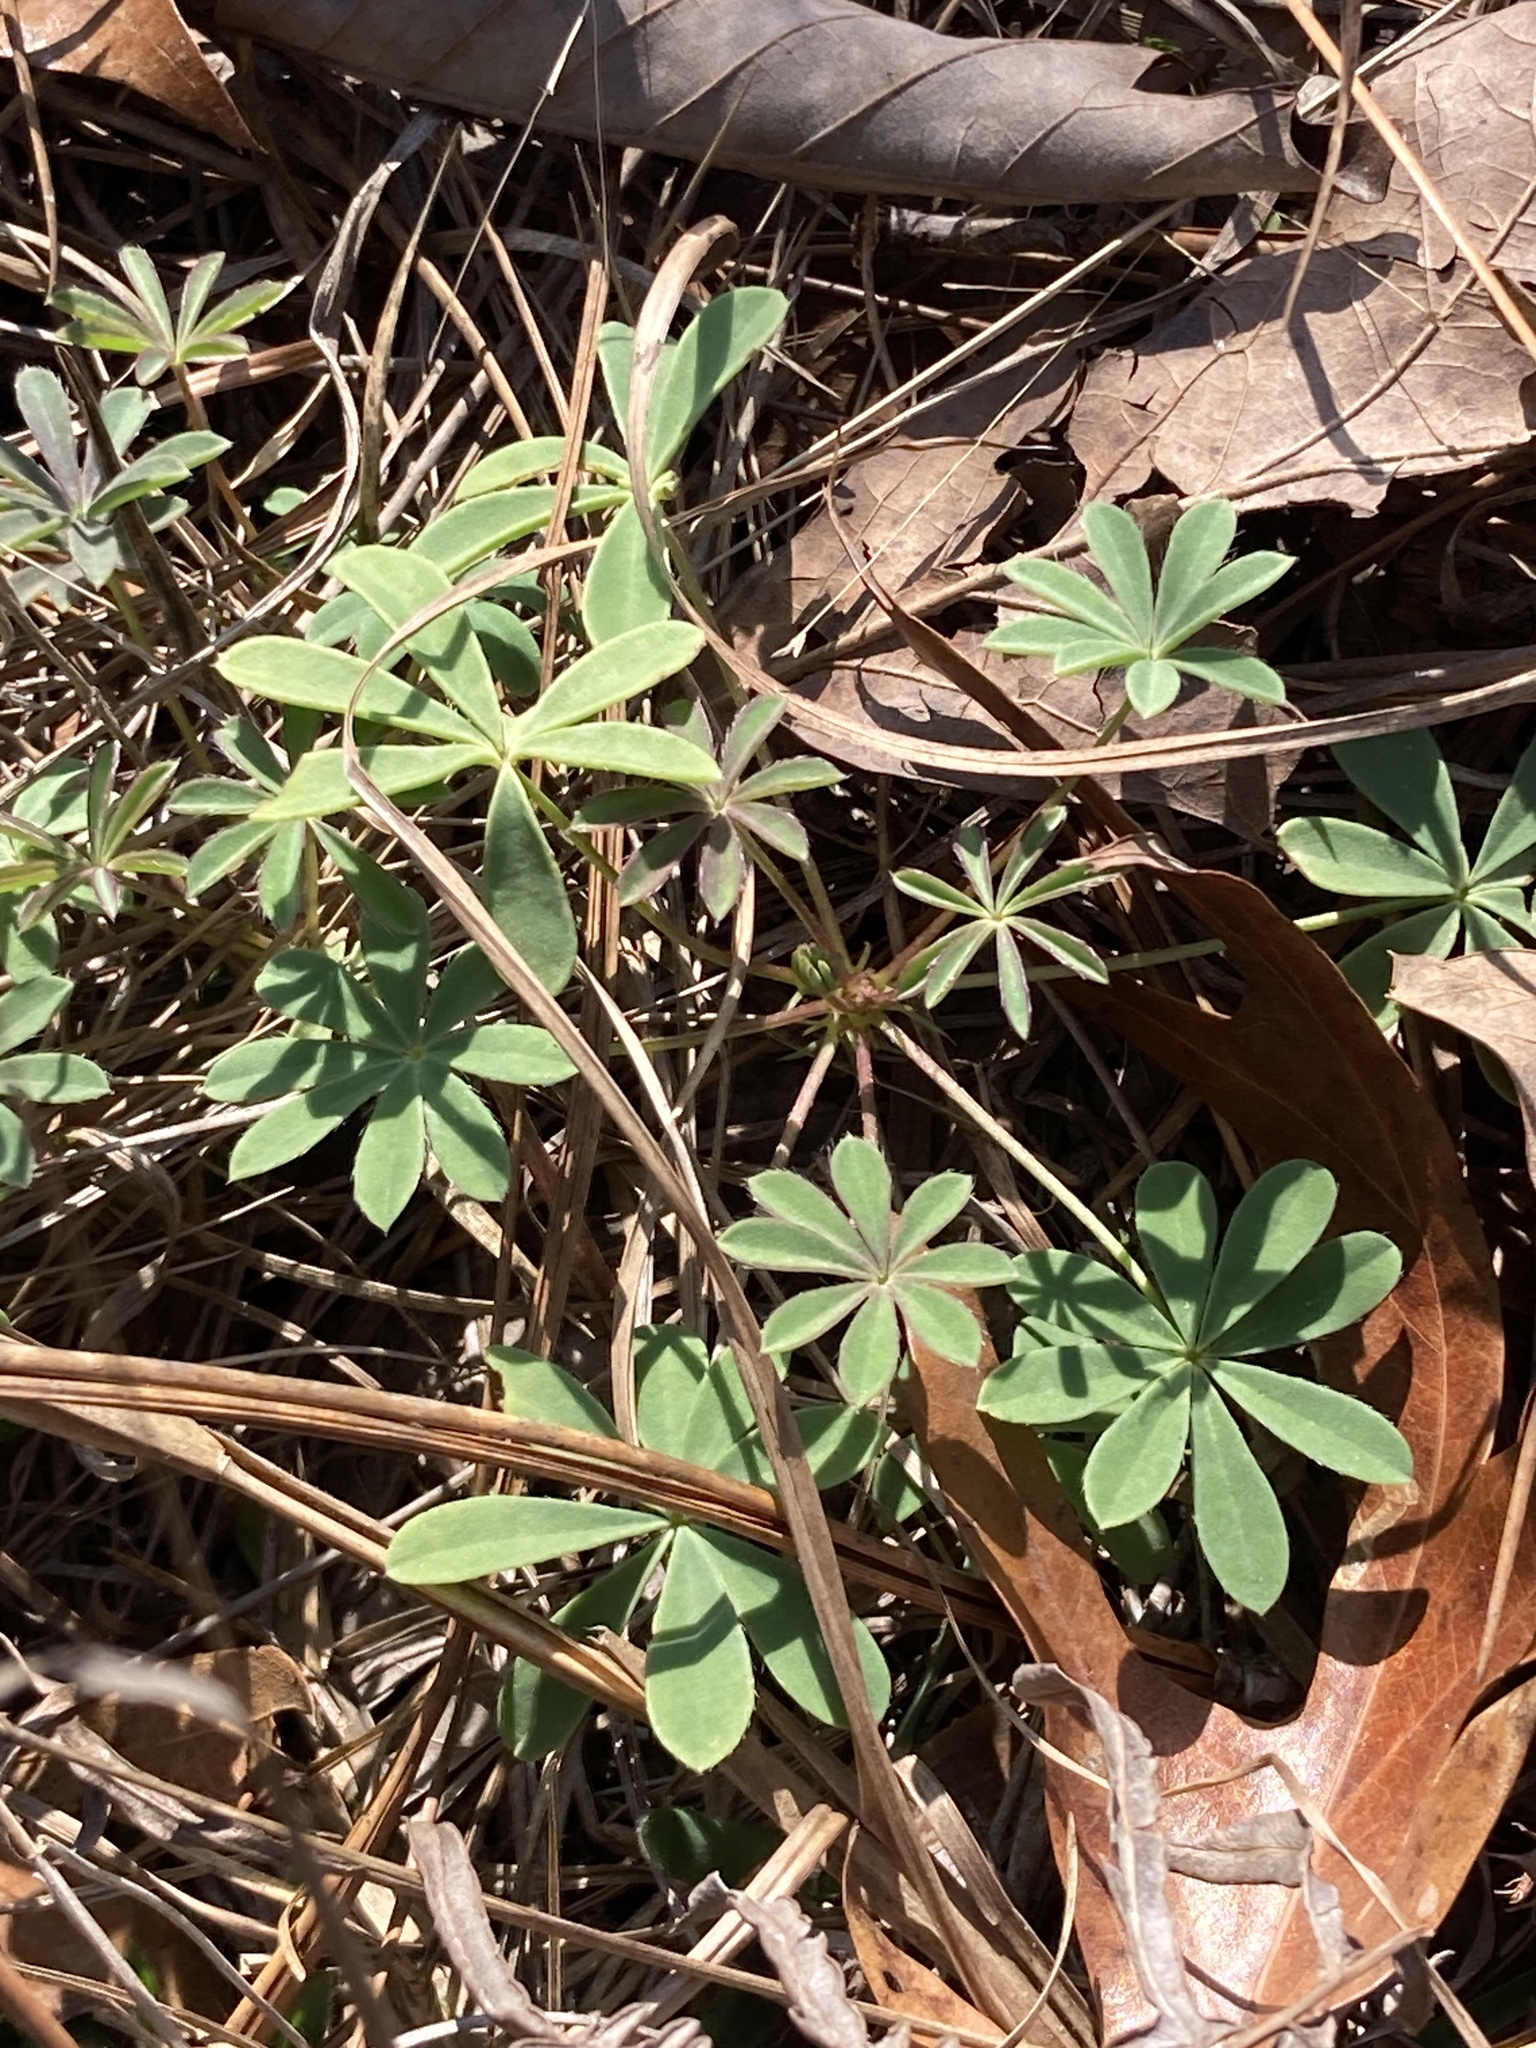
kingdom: Plantae
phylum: Tracheophyta
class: Magnoliopsida
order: Fabales
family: Fabaceae
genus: Lupinus
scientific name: Lupinus perennis
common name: Sundial lupine
